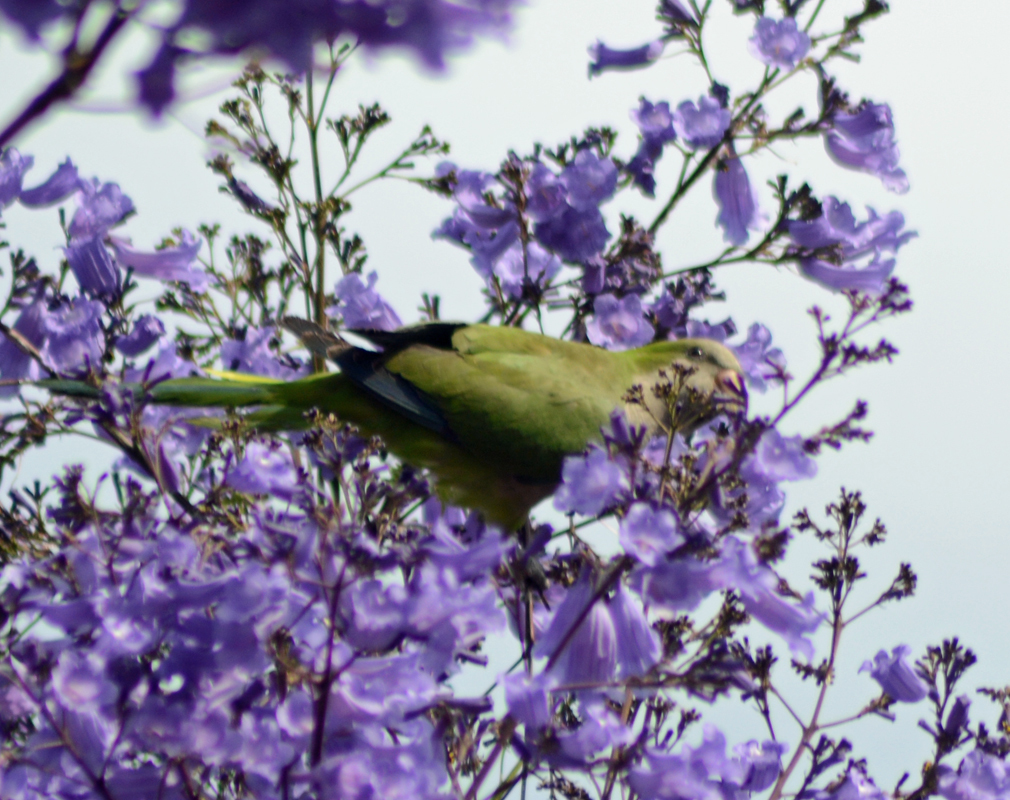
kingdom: Animalia
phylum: Chordata
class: Aves
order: Psittaciformes
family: Psittacidae
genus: Myiopsitta
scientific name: Myiopsitta monachus
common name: Monk parakeet
